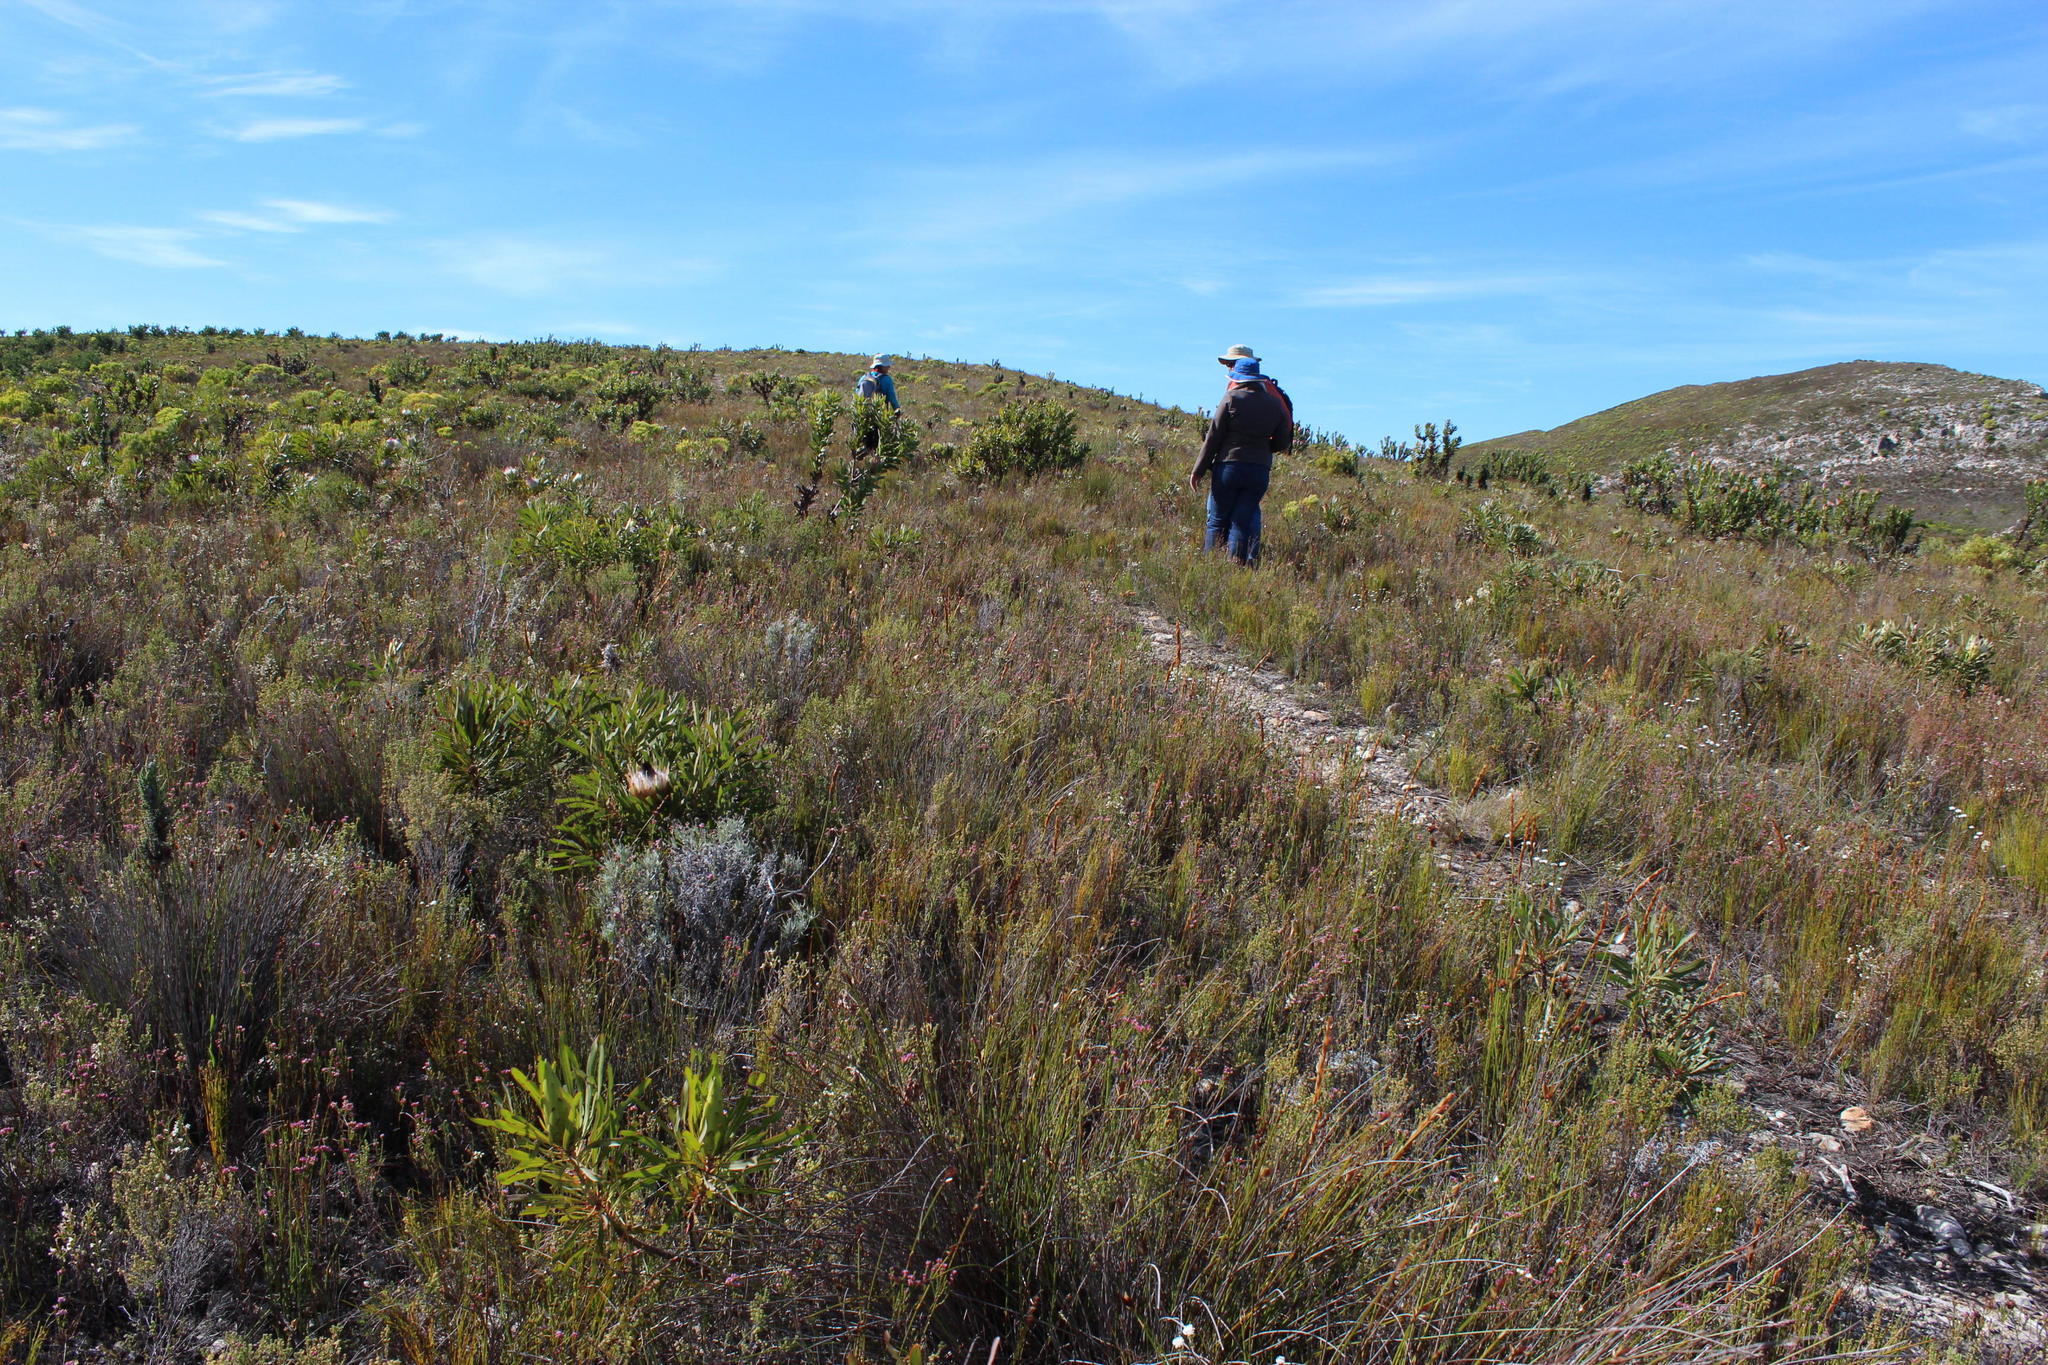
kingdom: Plantae
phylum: Tracheophyta
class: Magnoliopsida
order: Proteales
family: Proteaceae
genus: Protea
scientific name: Protea longifolia
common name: Long-leaf sugarbush
